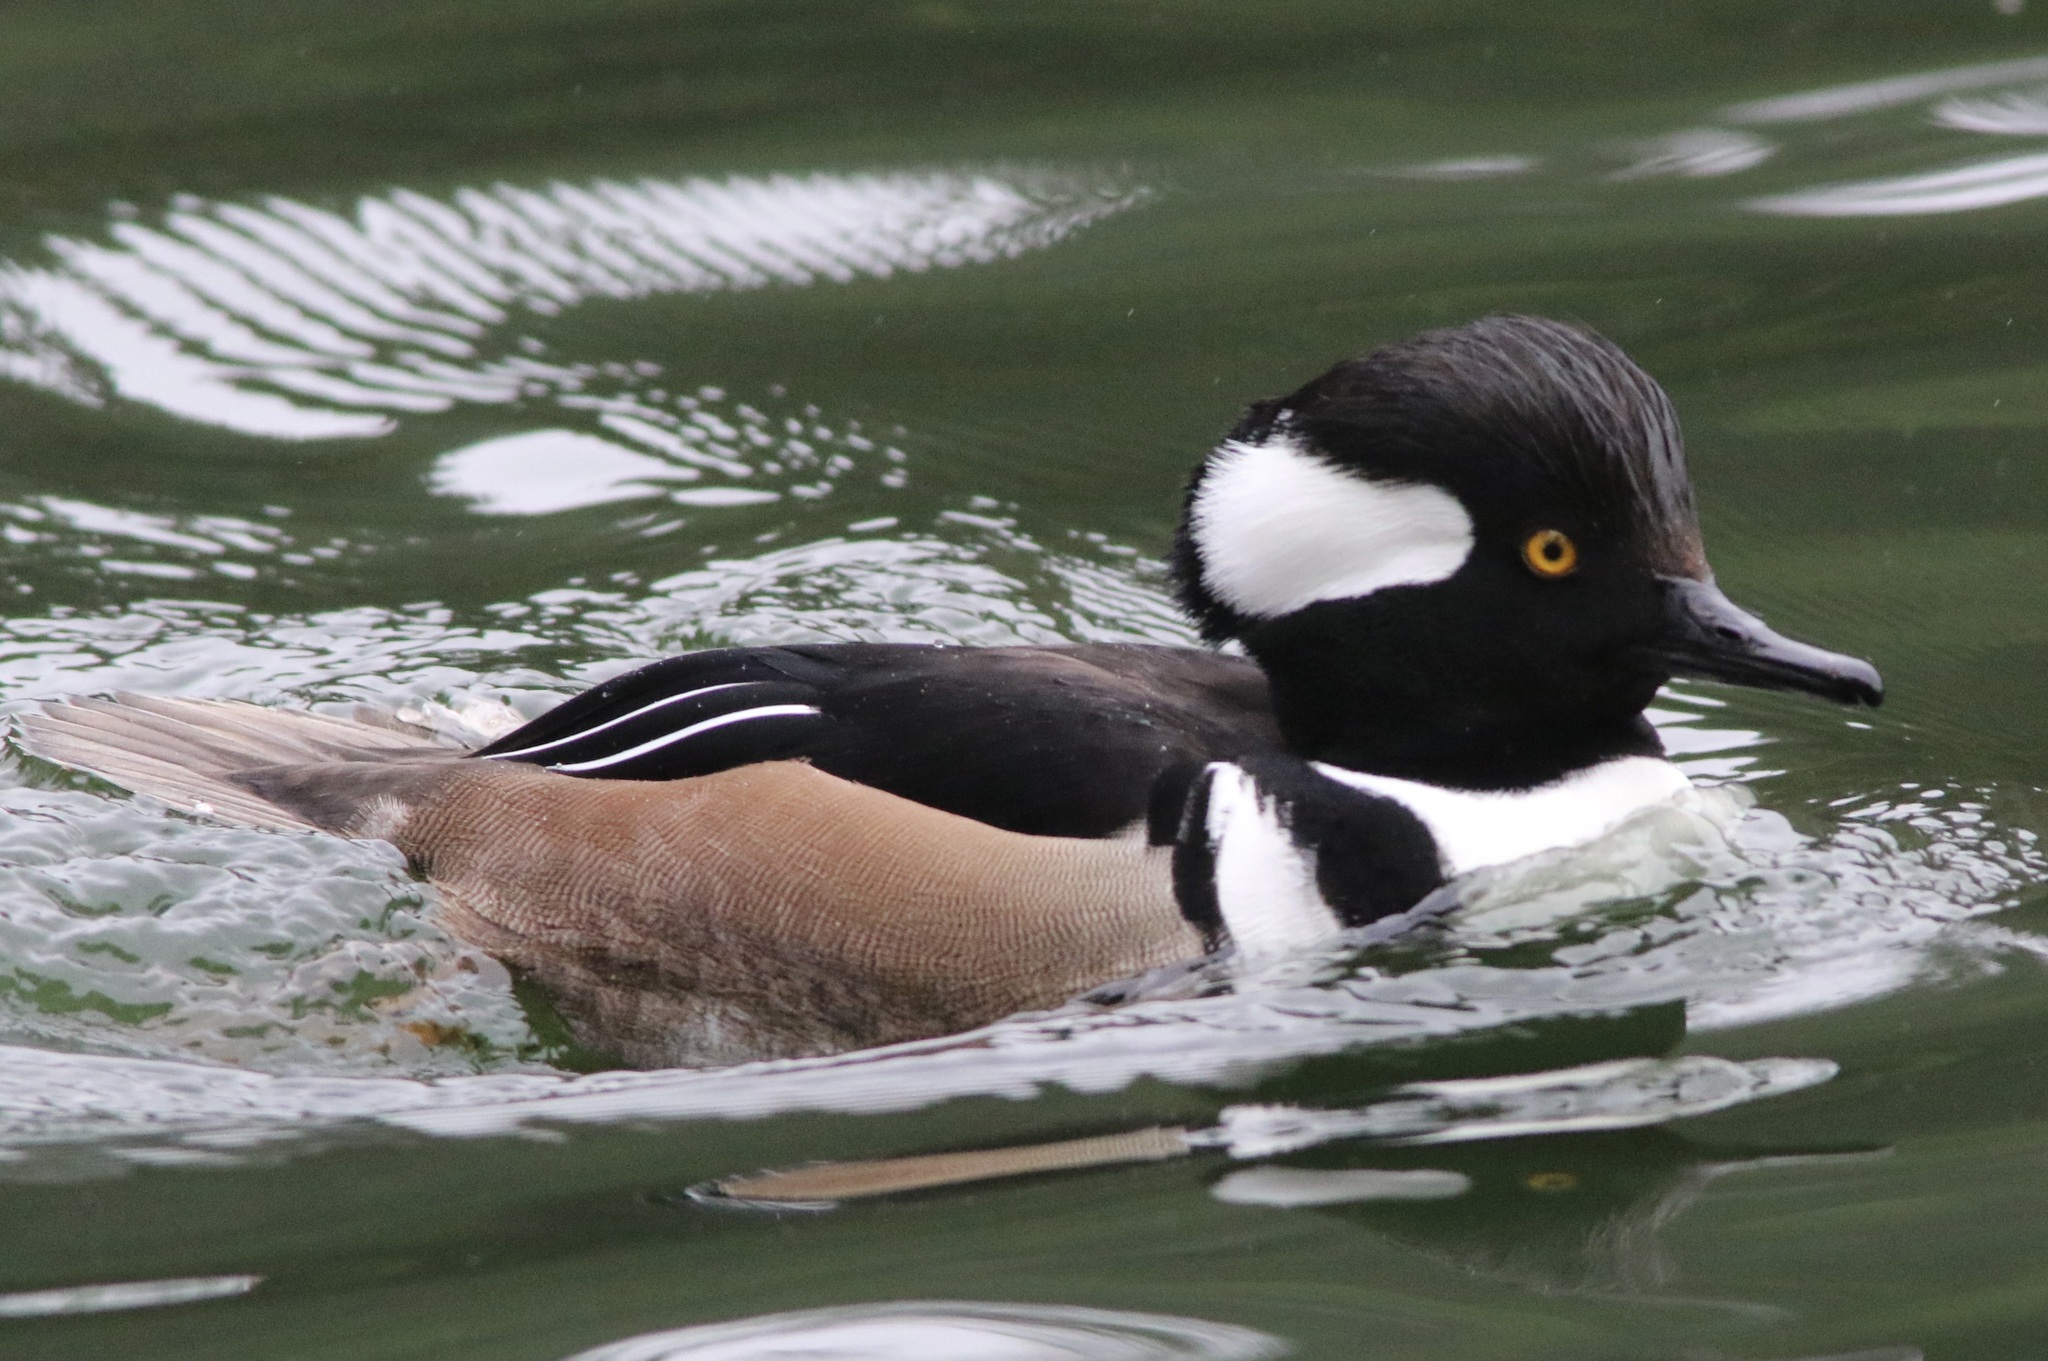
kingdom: Animalia
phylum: Chordata
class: Aves
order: Anseriformes
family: Anatidae
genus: Lophodytes
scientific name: Lophodytes cucullatus
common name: Hooded merganser
